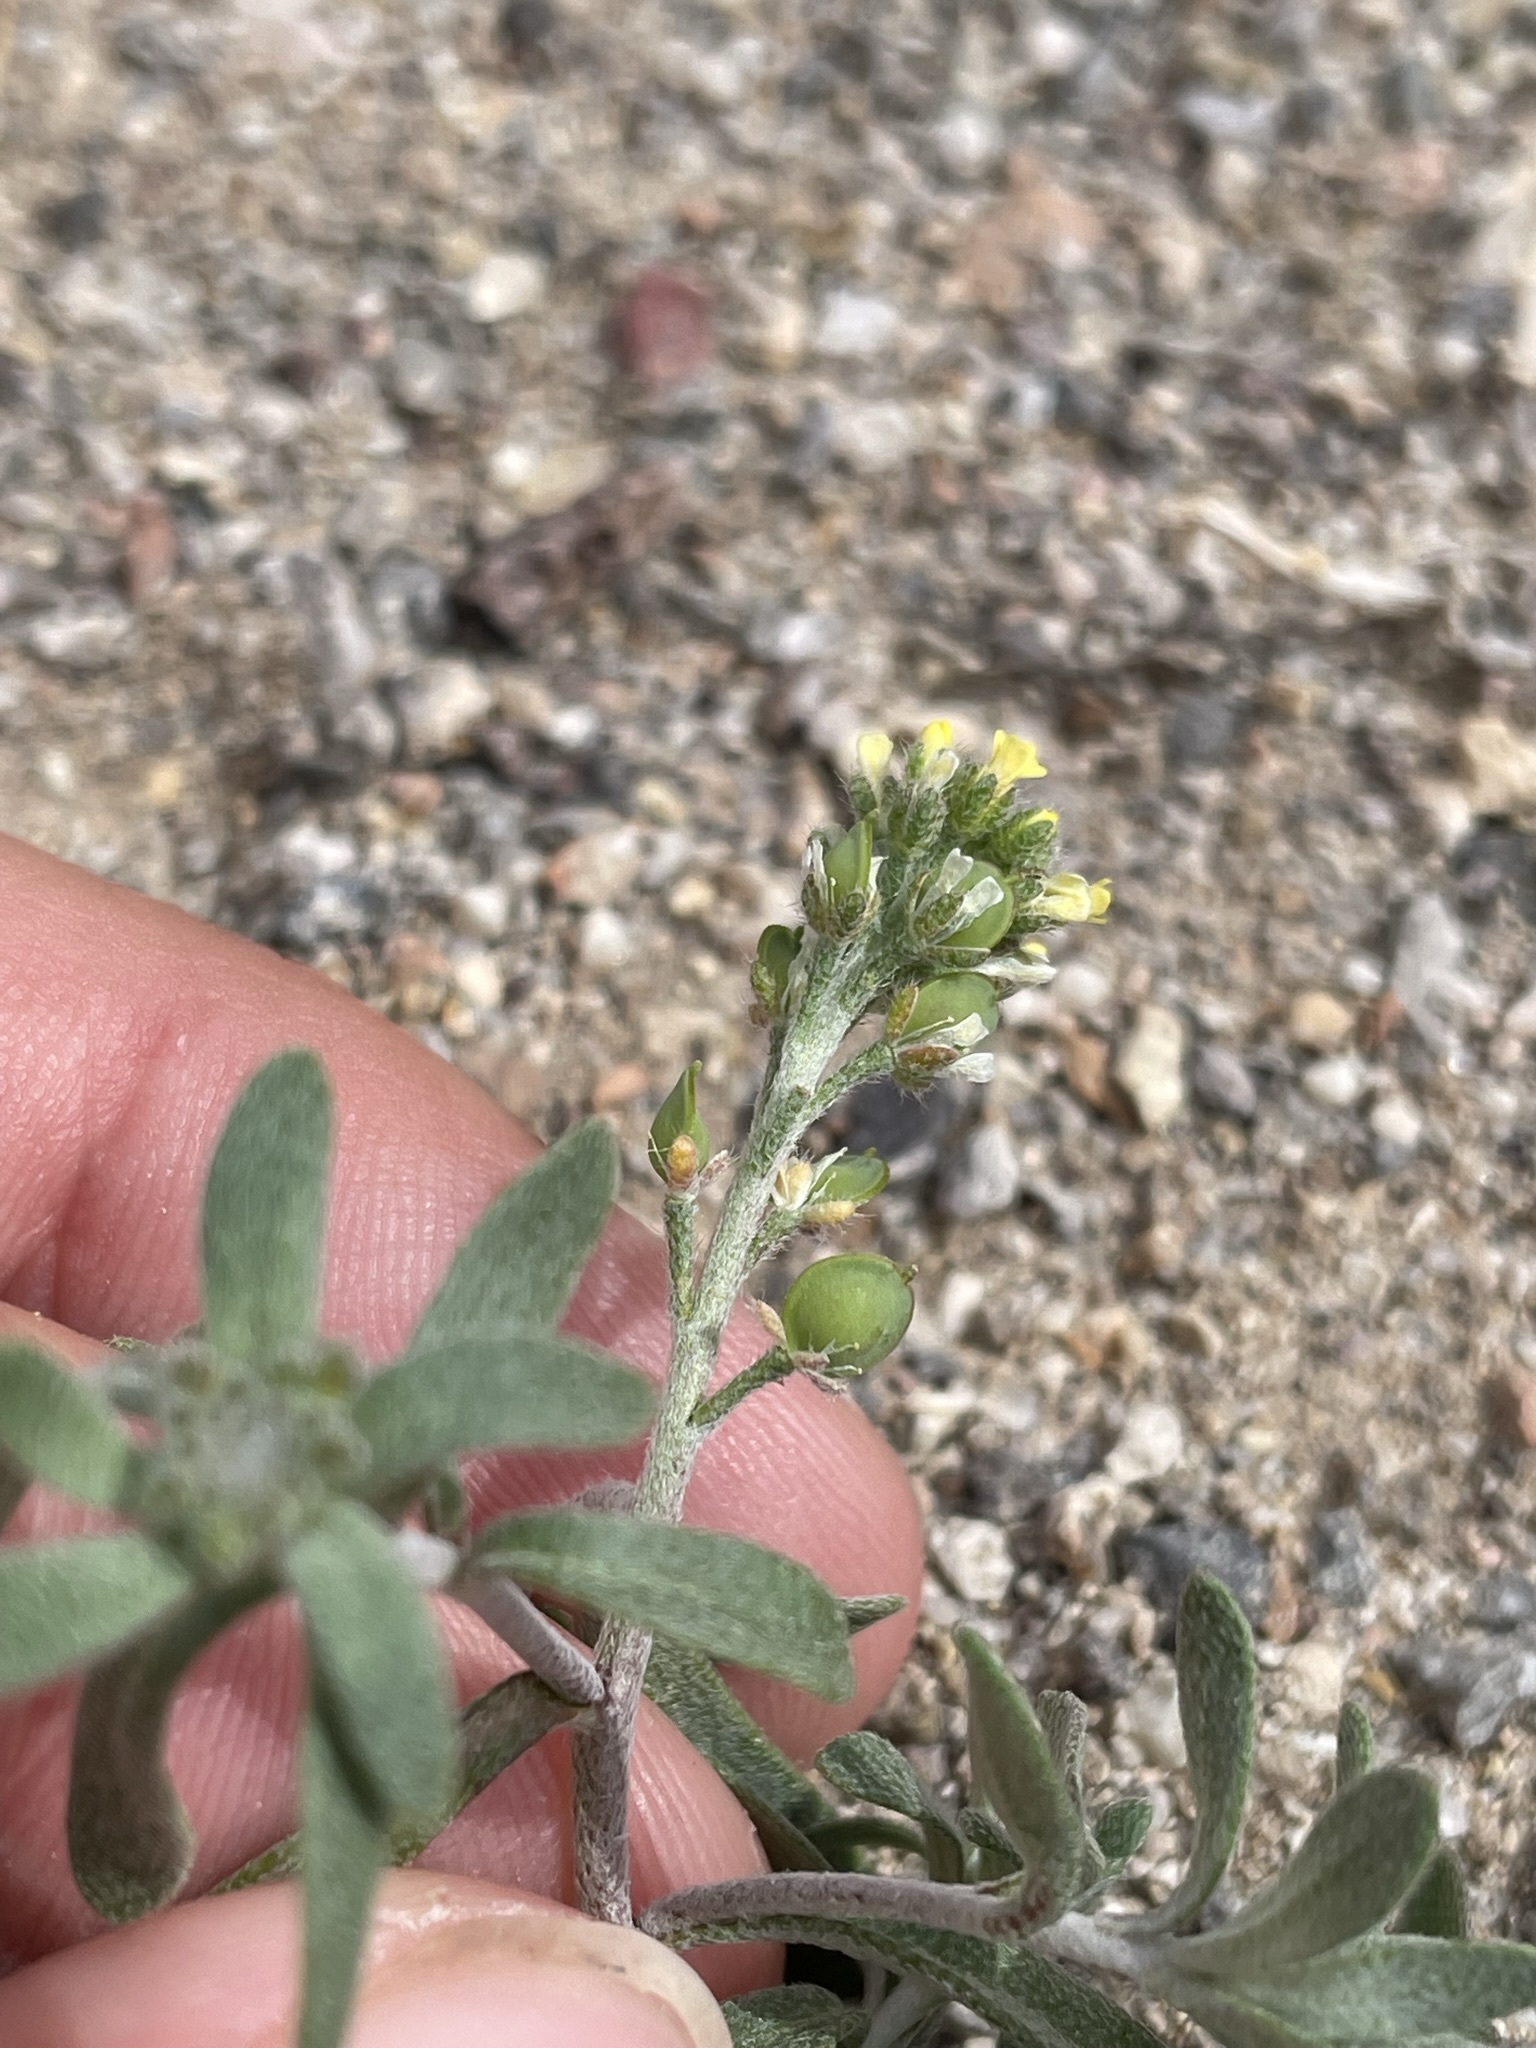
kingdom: Plantae
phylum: Tracheophyta
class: Magnoliopsida
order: Brassicales
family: Brassicaceae
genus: Alyssum
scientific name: Alyssum turkestanicum
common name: Desert alyssum
